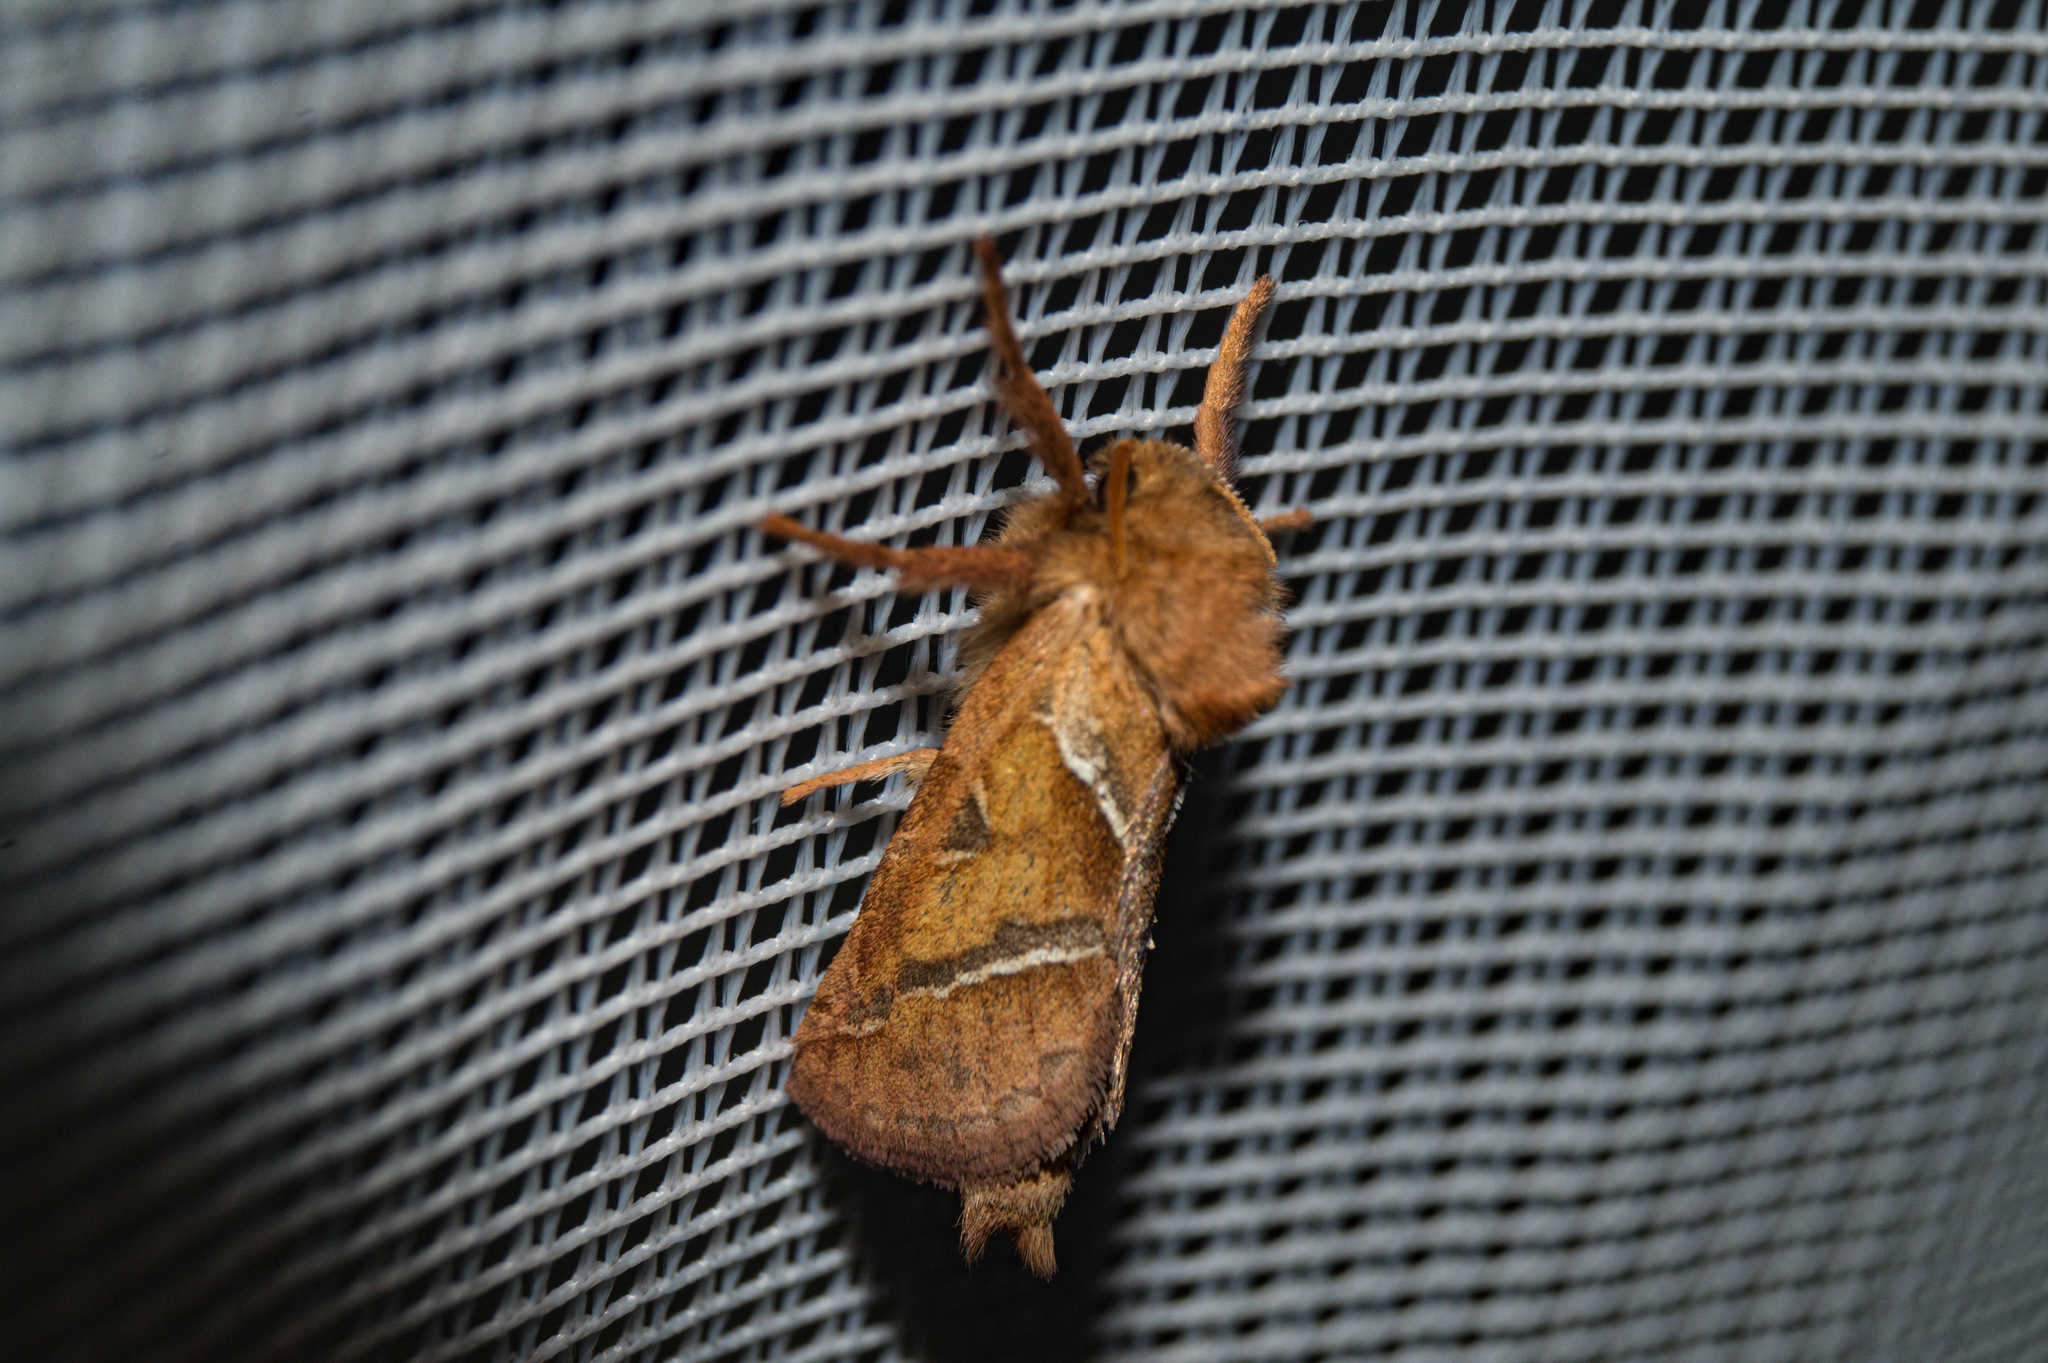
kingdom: Animalia
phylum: Arthropoda
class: Insecta
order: Lepidoptera
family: Hepialidae
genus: Triodia
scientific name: Triodia sylvina
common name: Orange swift
